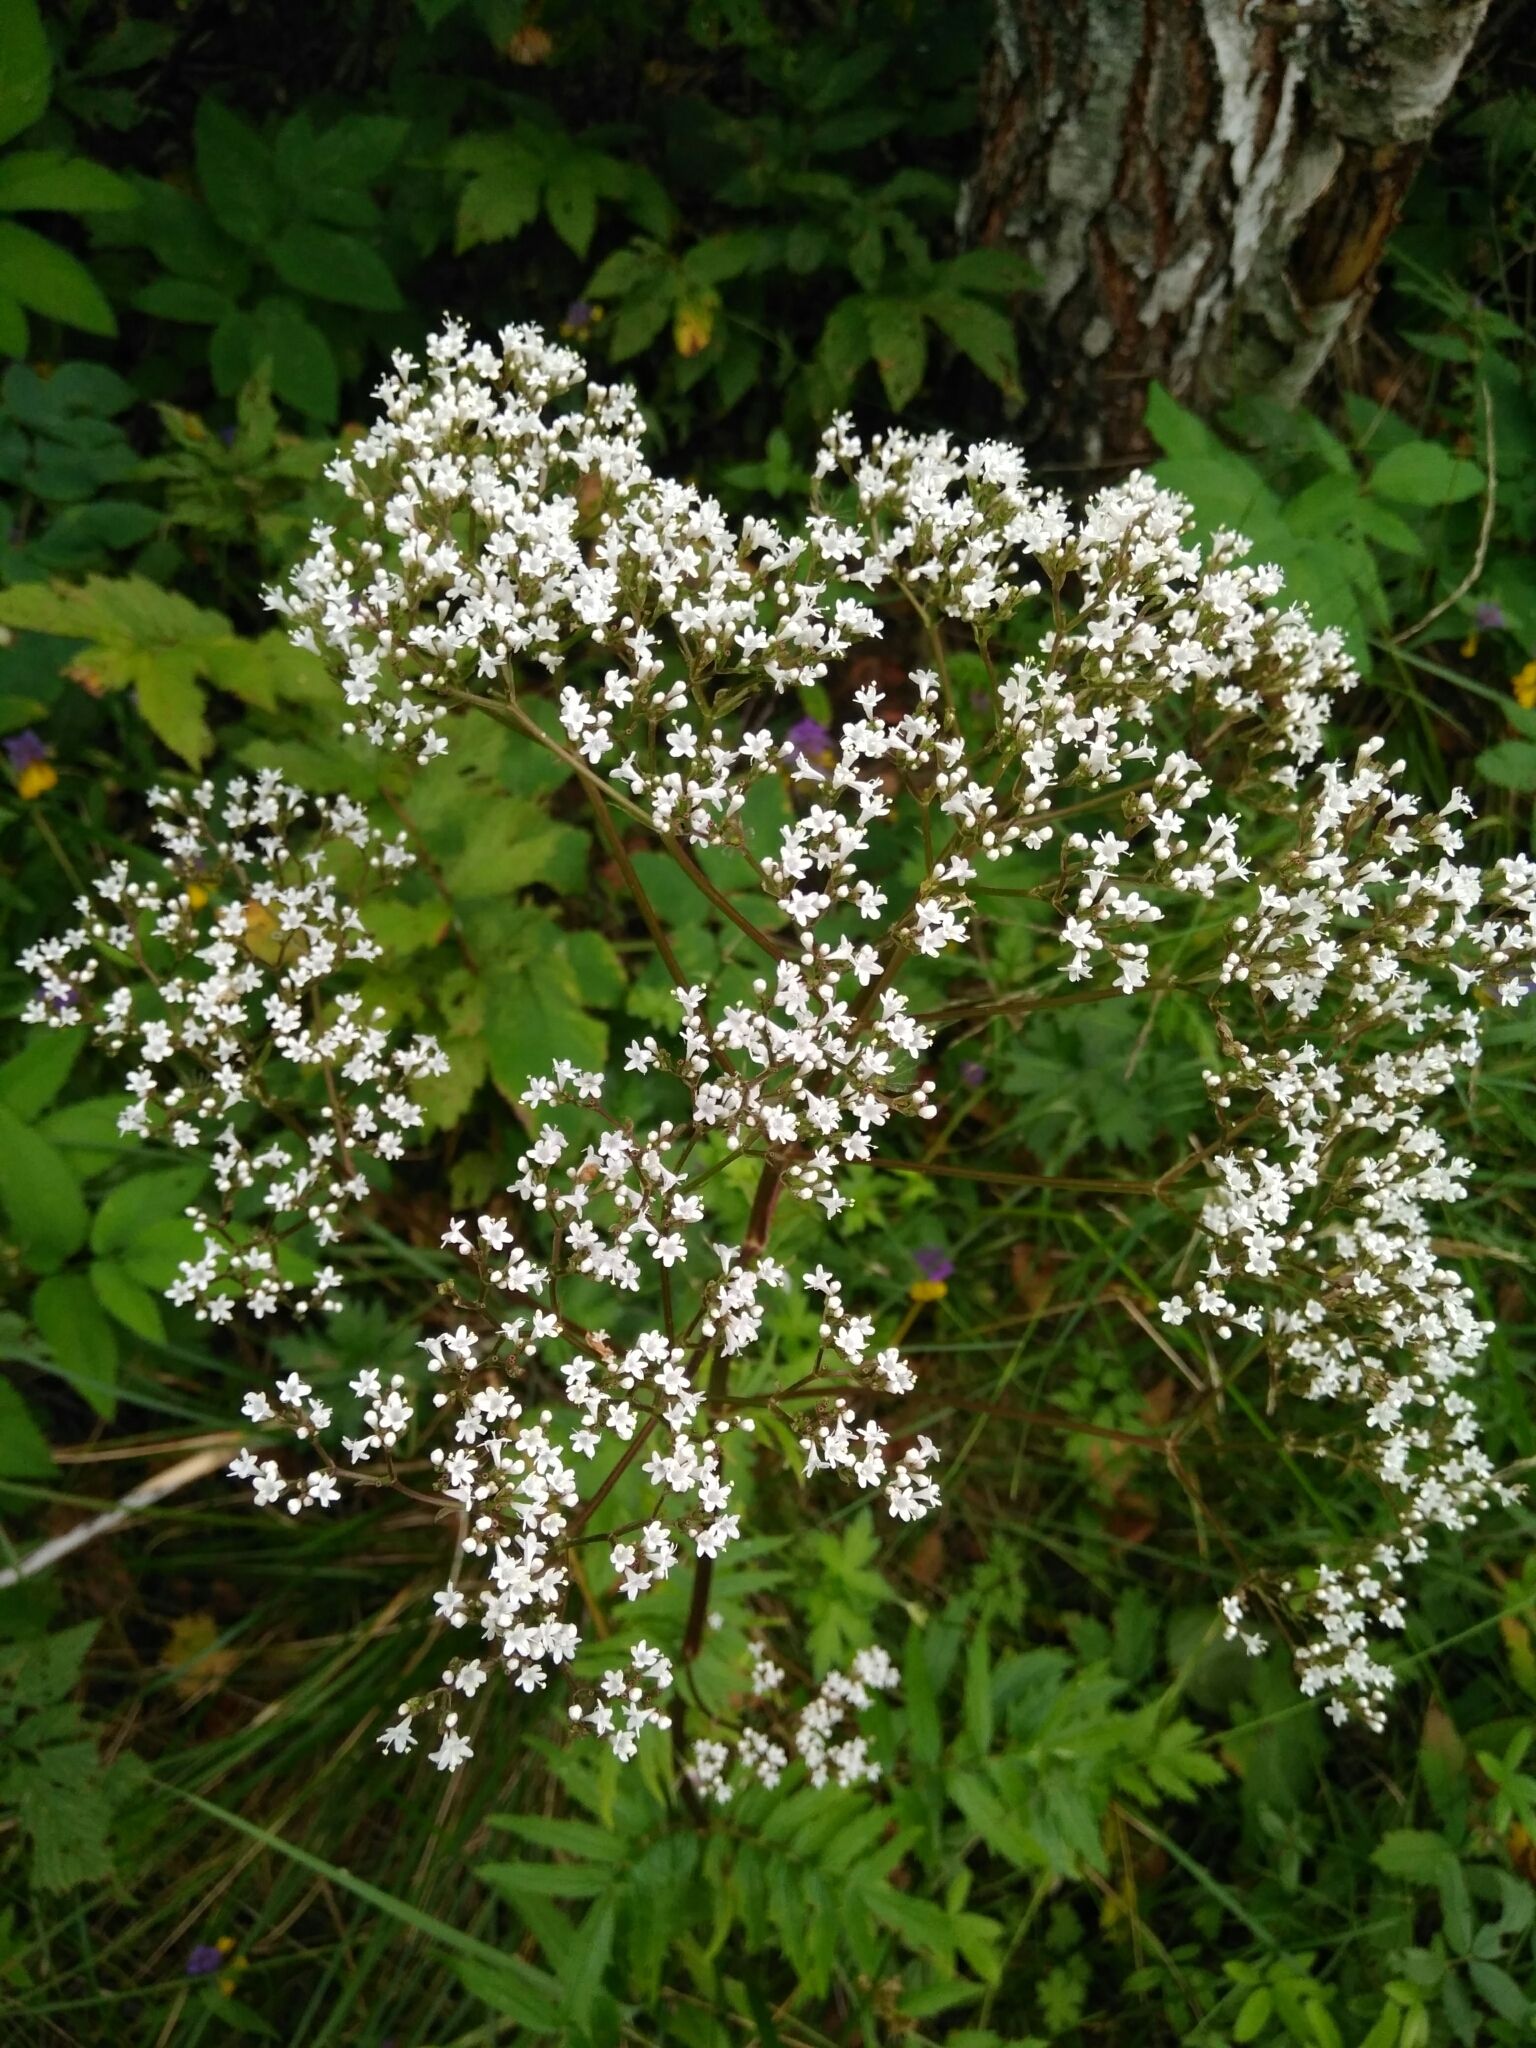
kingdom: Plantae
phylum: Tracheophyta
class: Magnoliopsida
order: Dipsacales
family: Caprifoliaceae
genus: Valeriana
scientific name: Valeriana officinalis
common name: Common valerian
